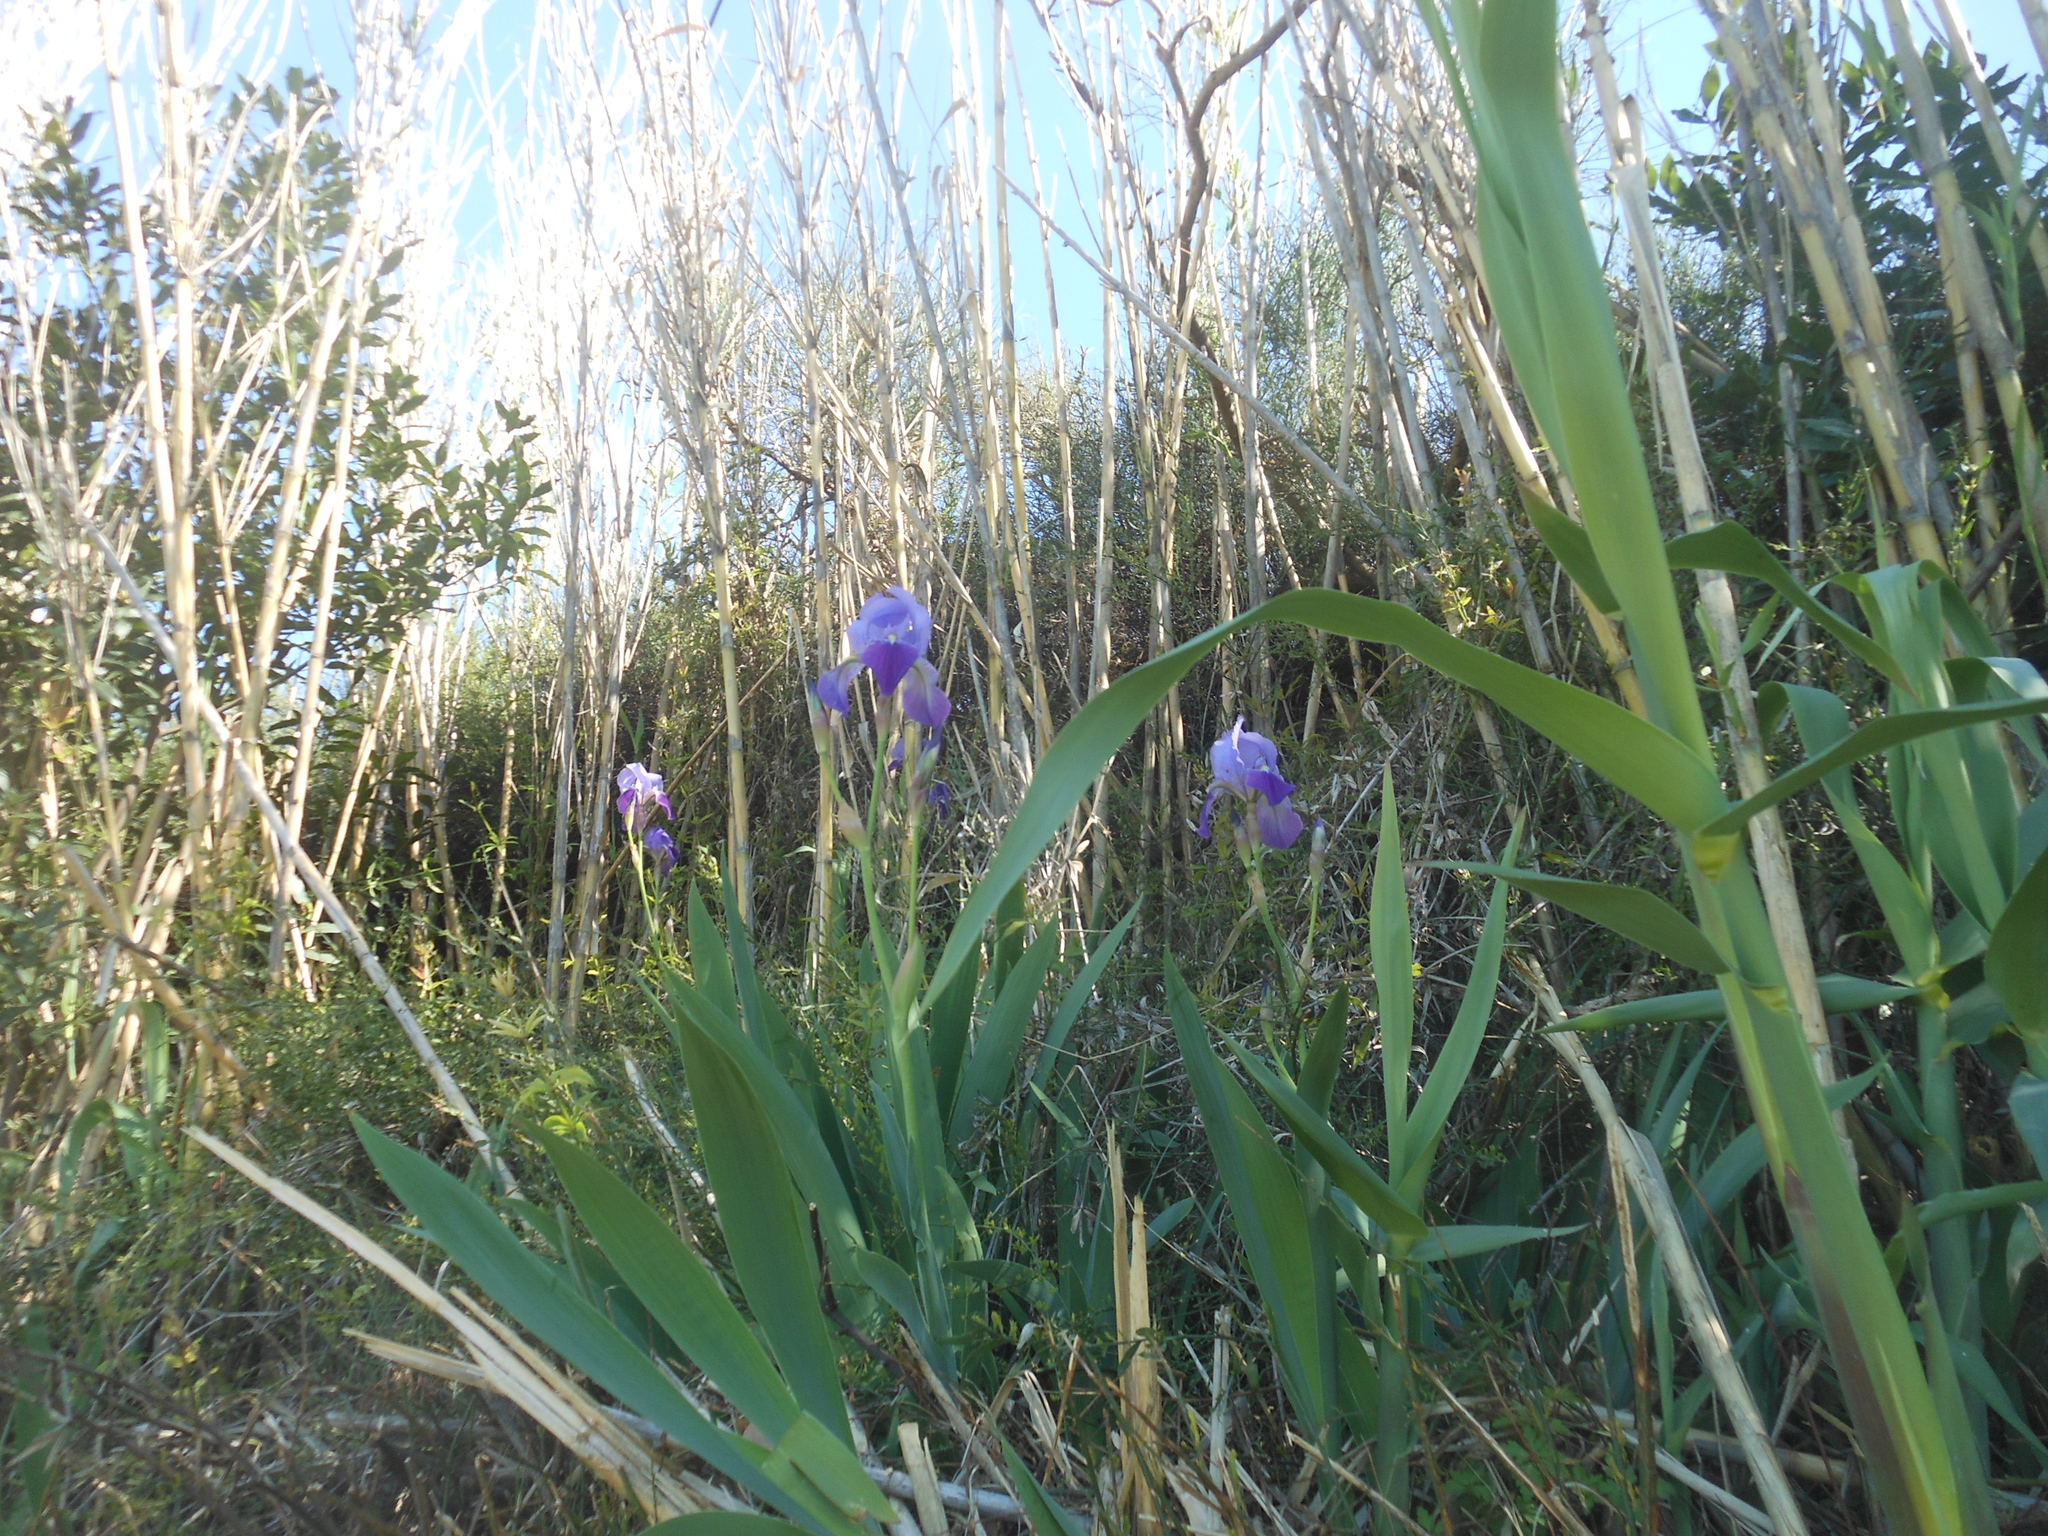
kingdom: Plantae
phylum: Tracheophyta
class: Liliopsida
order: Asparagales
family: Iridaceae
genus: Iris
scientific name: Iris pallida
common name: Sweet iris
